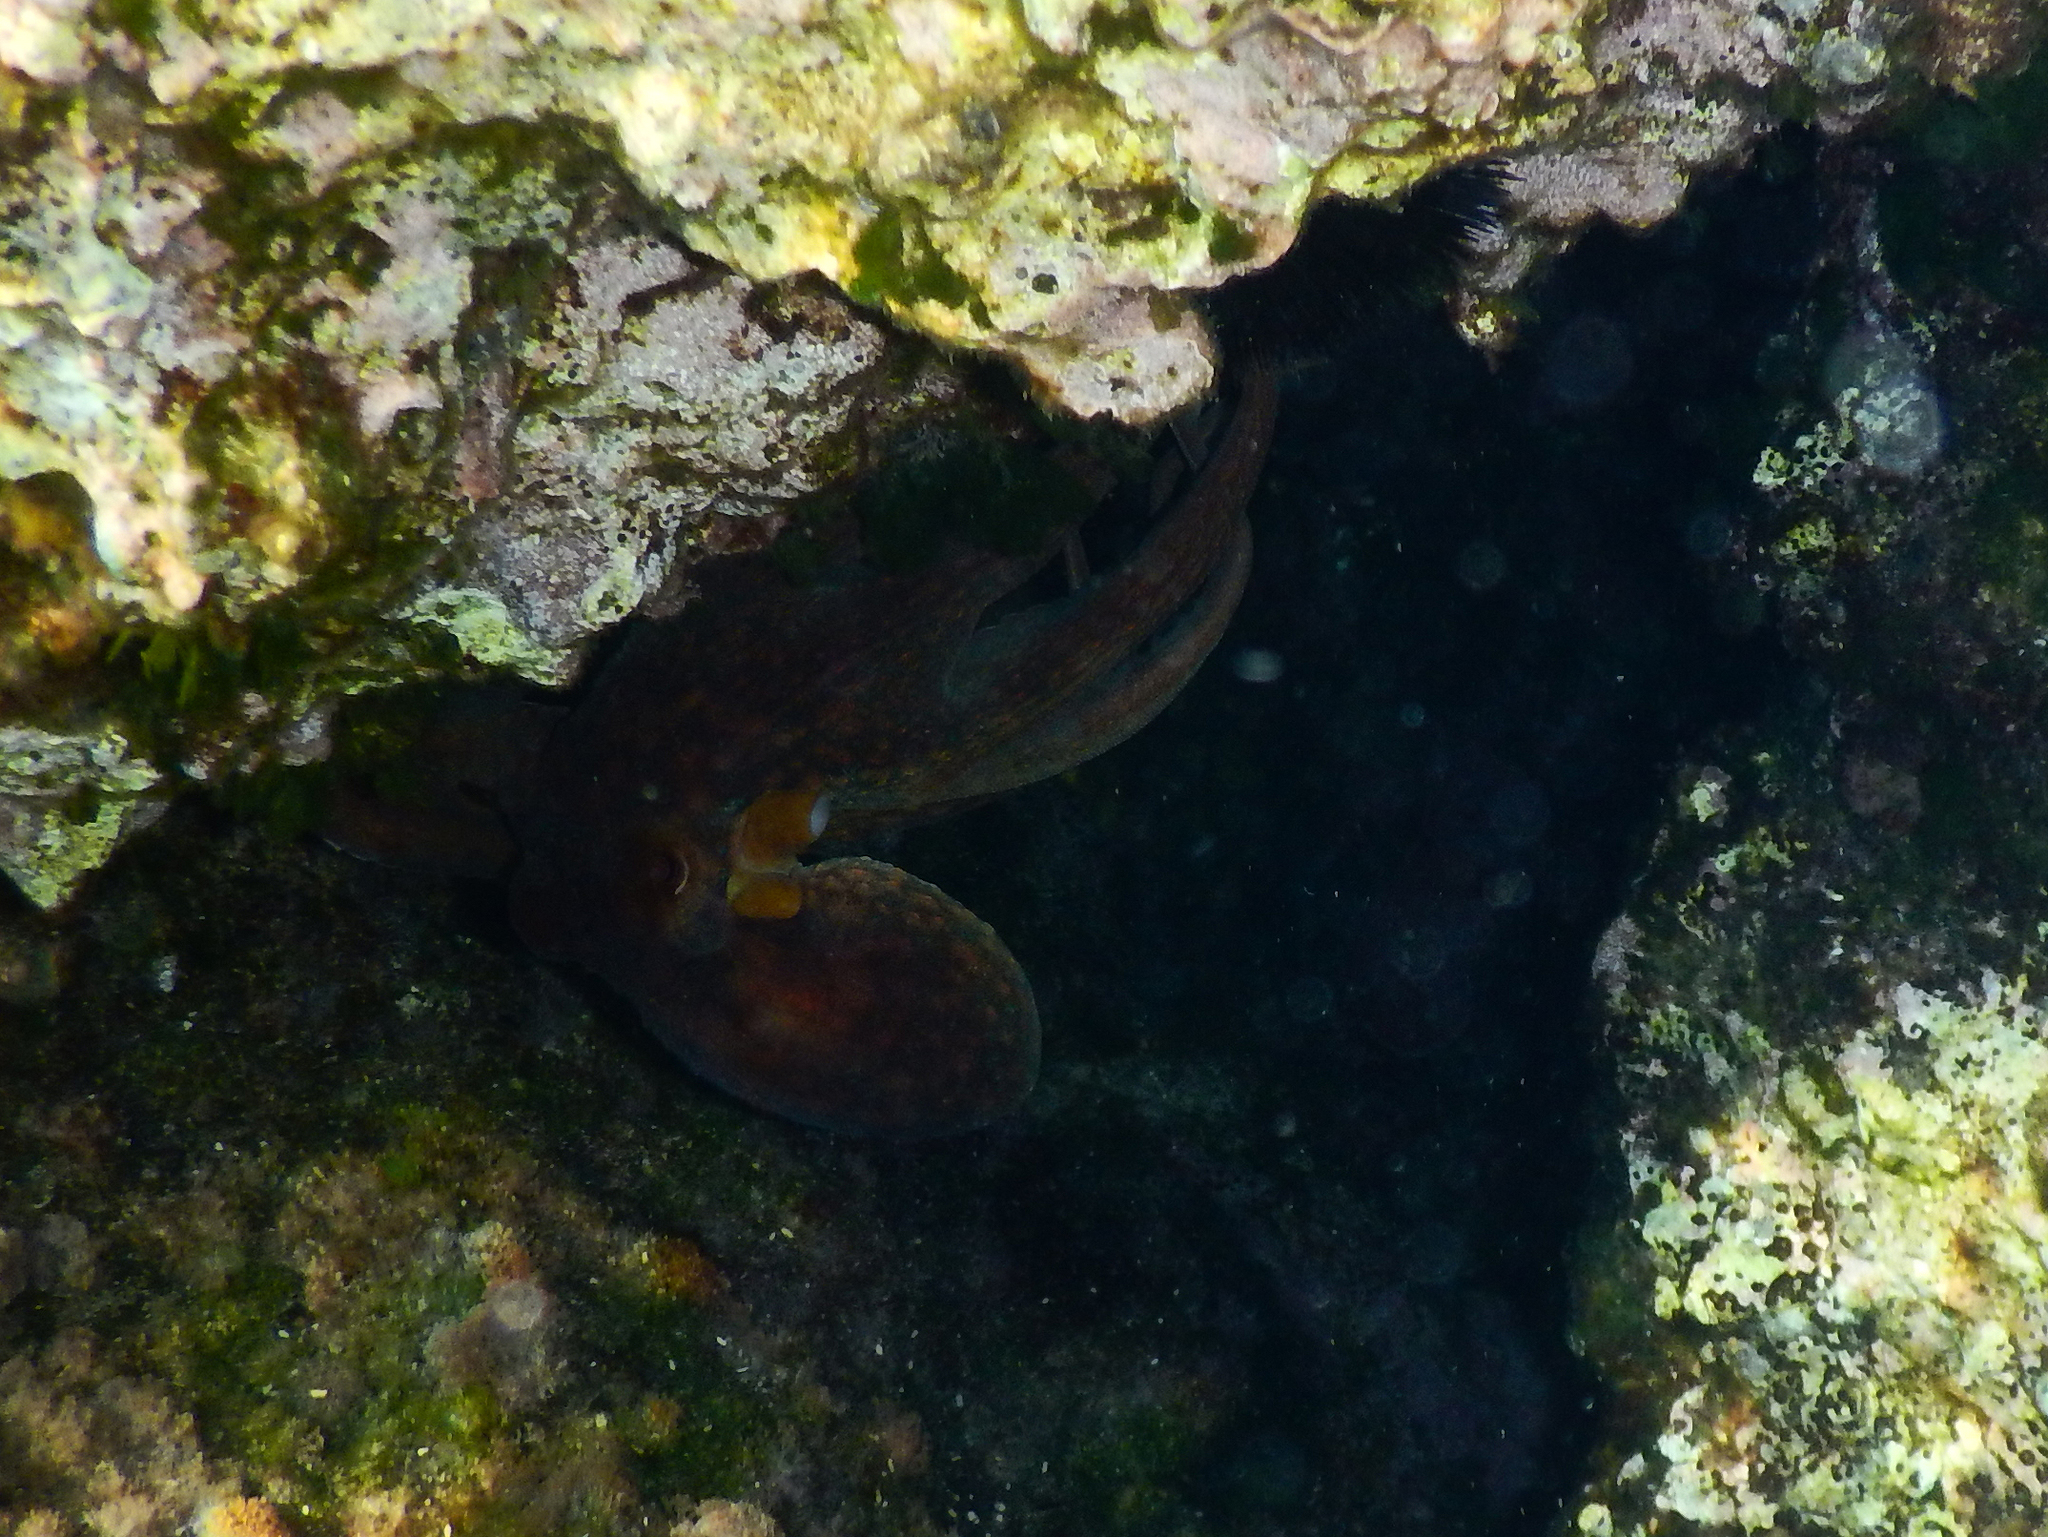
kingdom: Animalia
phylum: Mollusca
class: Cephalopoda
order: Octopoda
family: Octopodidae
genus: Octopus
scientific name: Octopus vulgaris
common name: Common octopus
